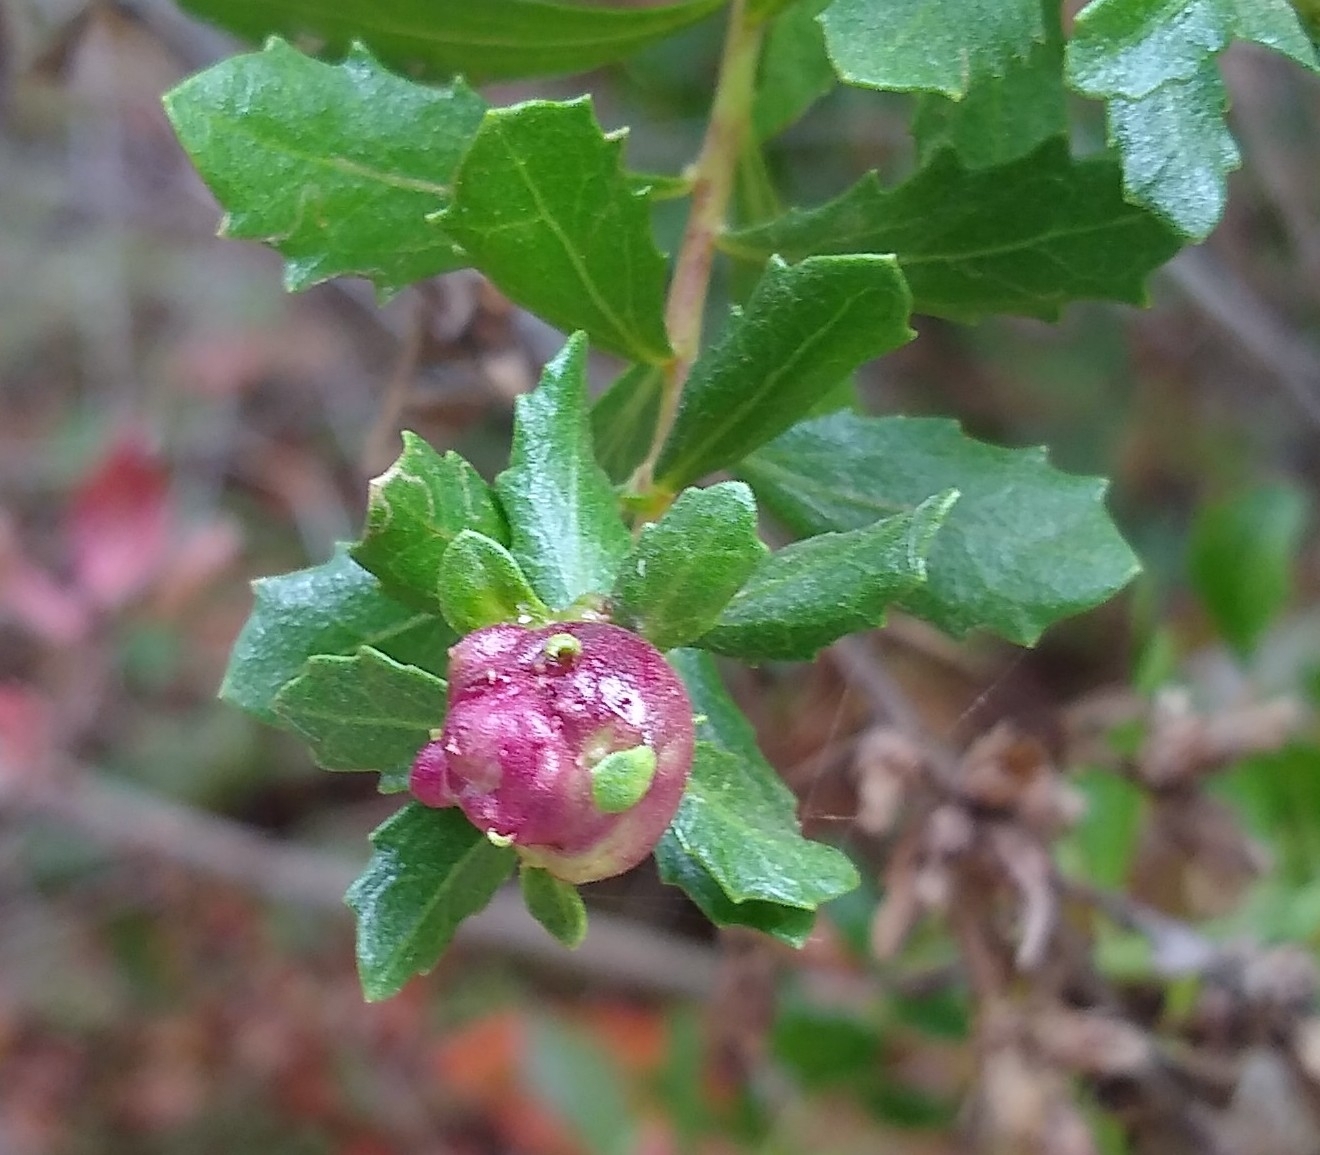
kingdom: Animalia
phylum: Arthropoda
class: Insecta
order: Diptera
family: Cecidomyiidae
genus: Rhopalomyia
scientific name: Rhopalomyia californica
